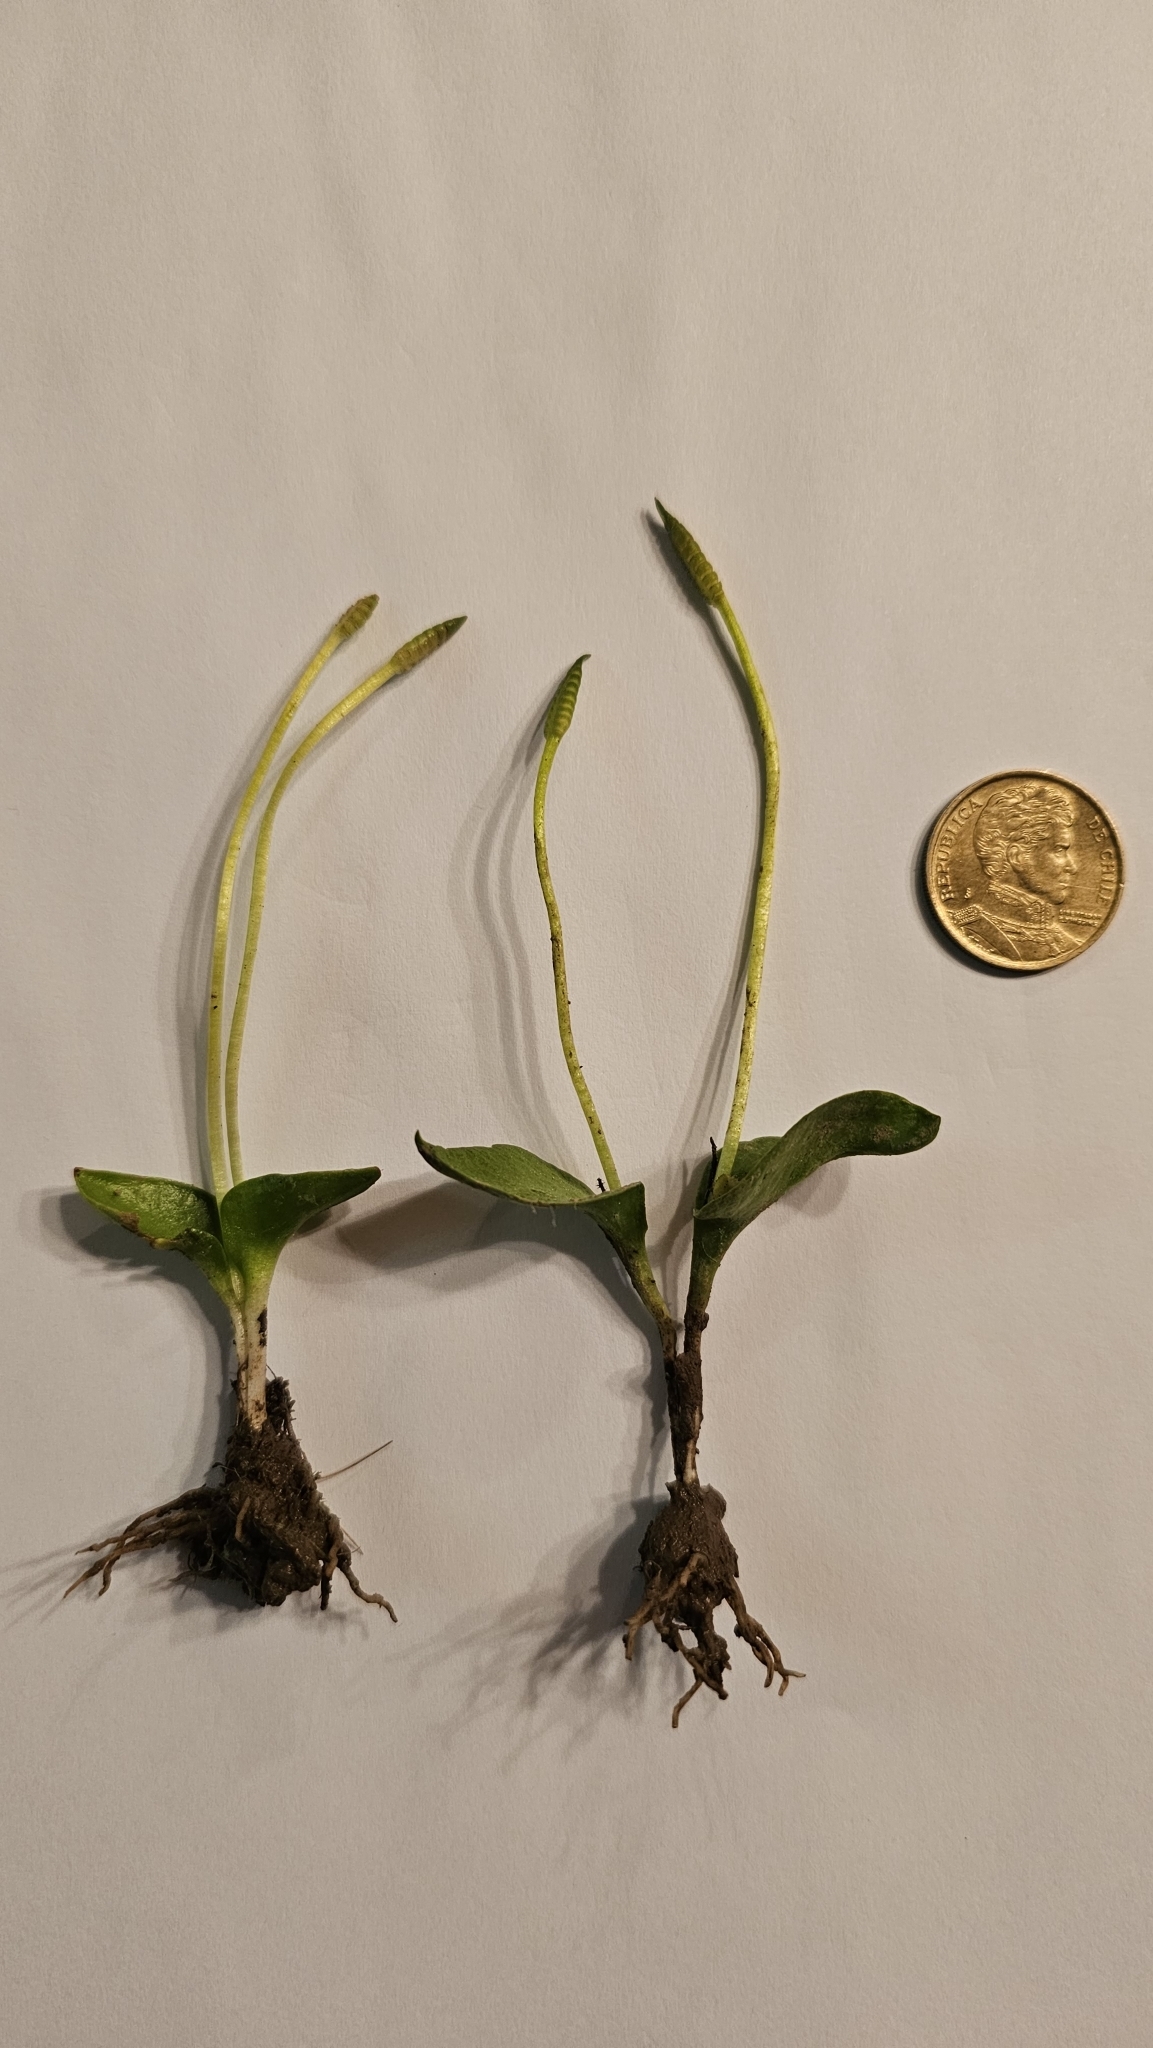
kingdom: Plantae
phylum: Tracheophyta
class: Polypodiopsida
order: Ophioglossales
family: Ophioglossaceae
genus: Ophioglossum
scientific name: Ophioglossum crotalophoroides
